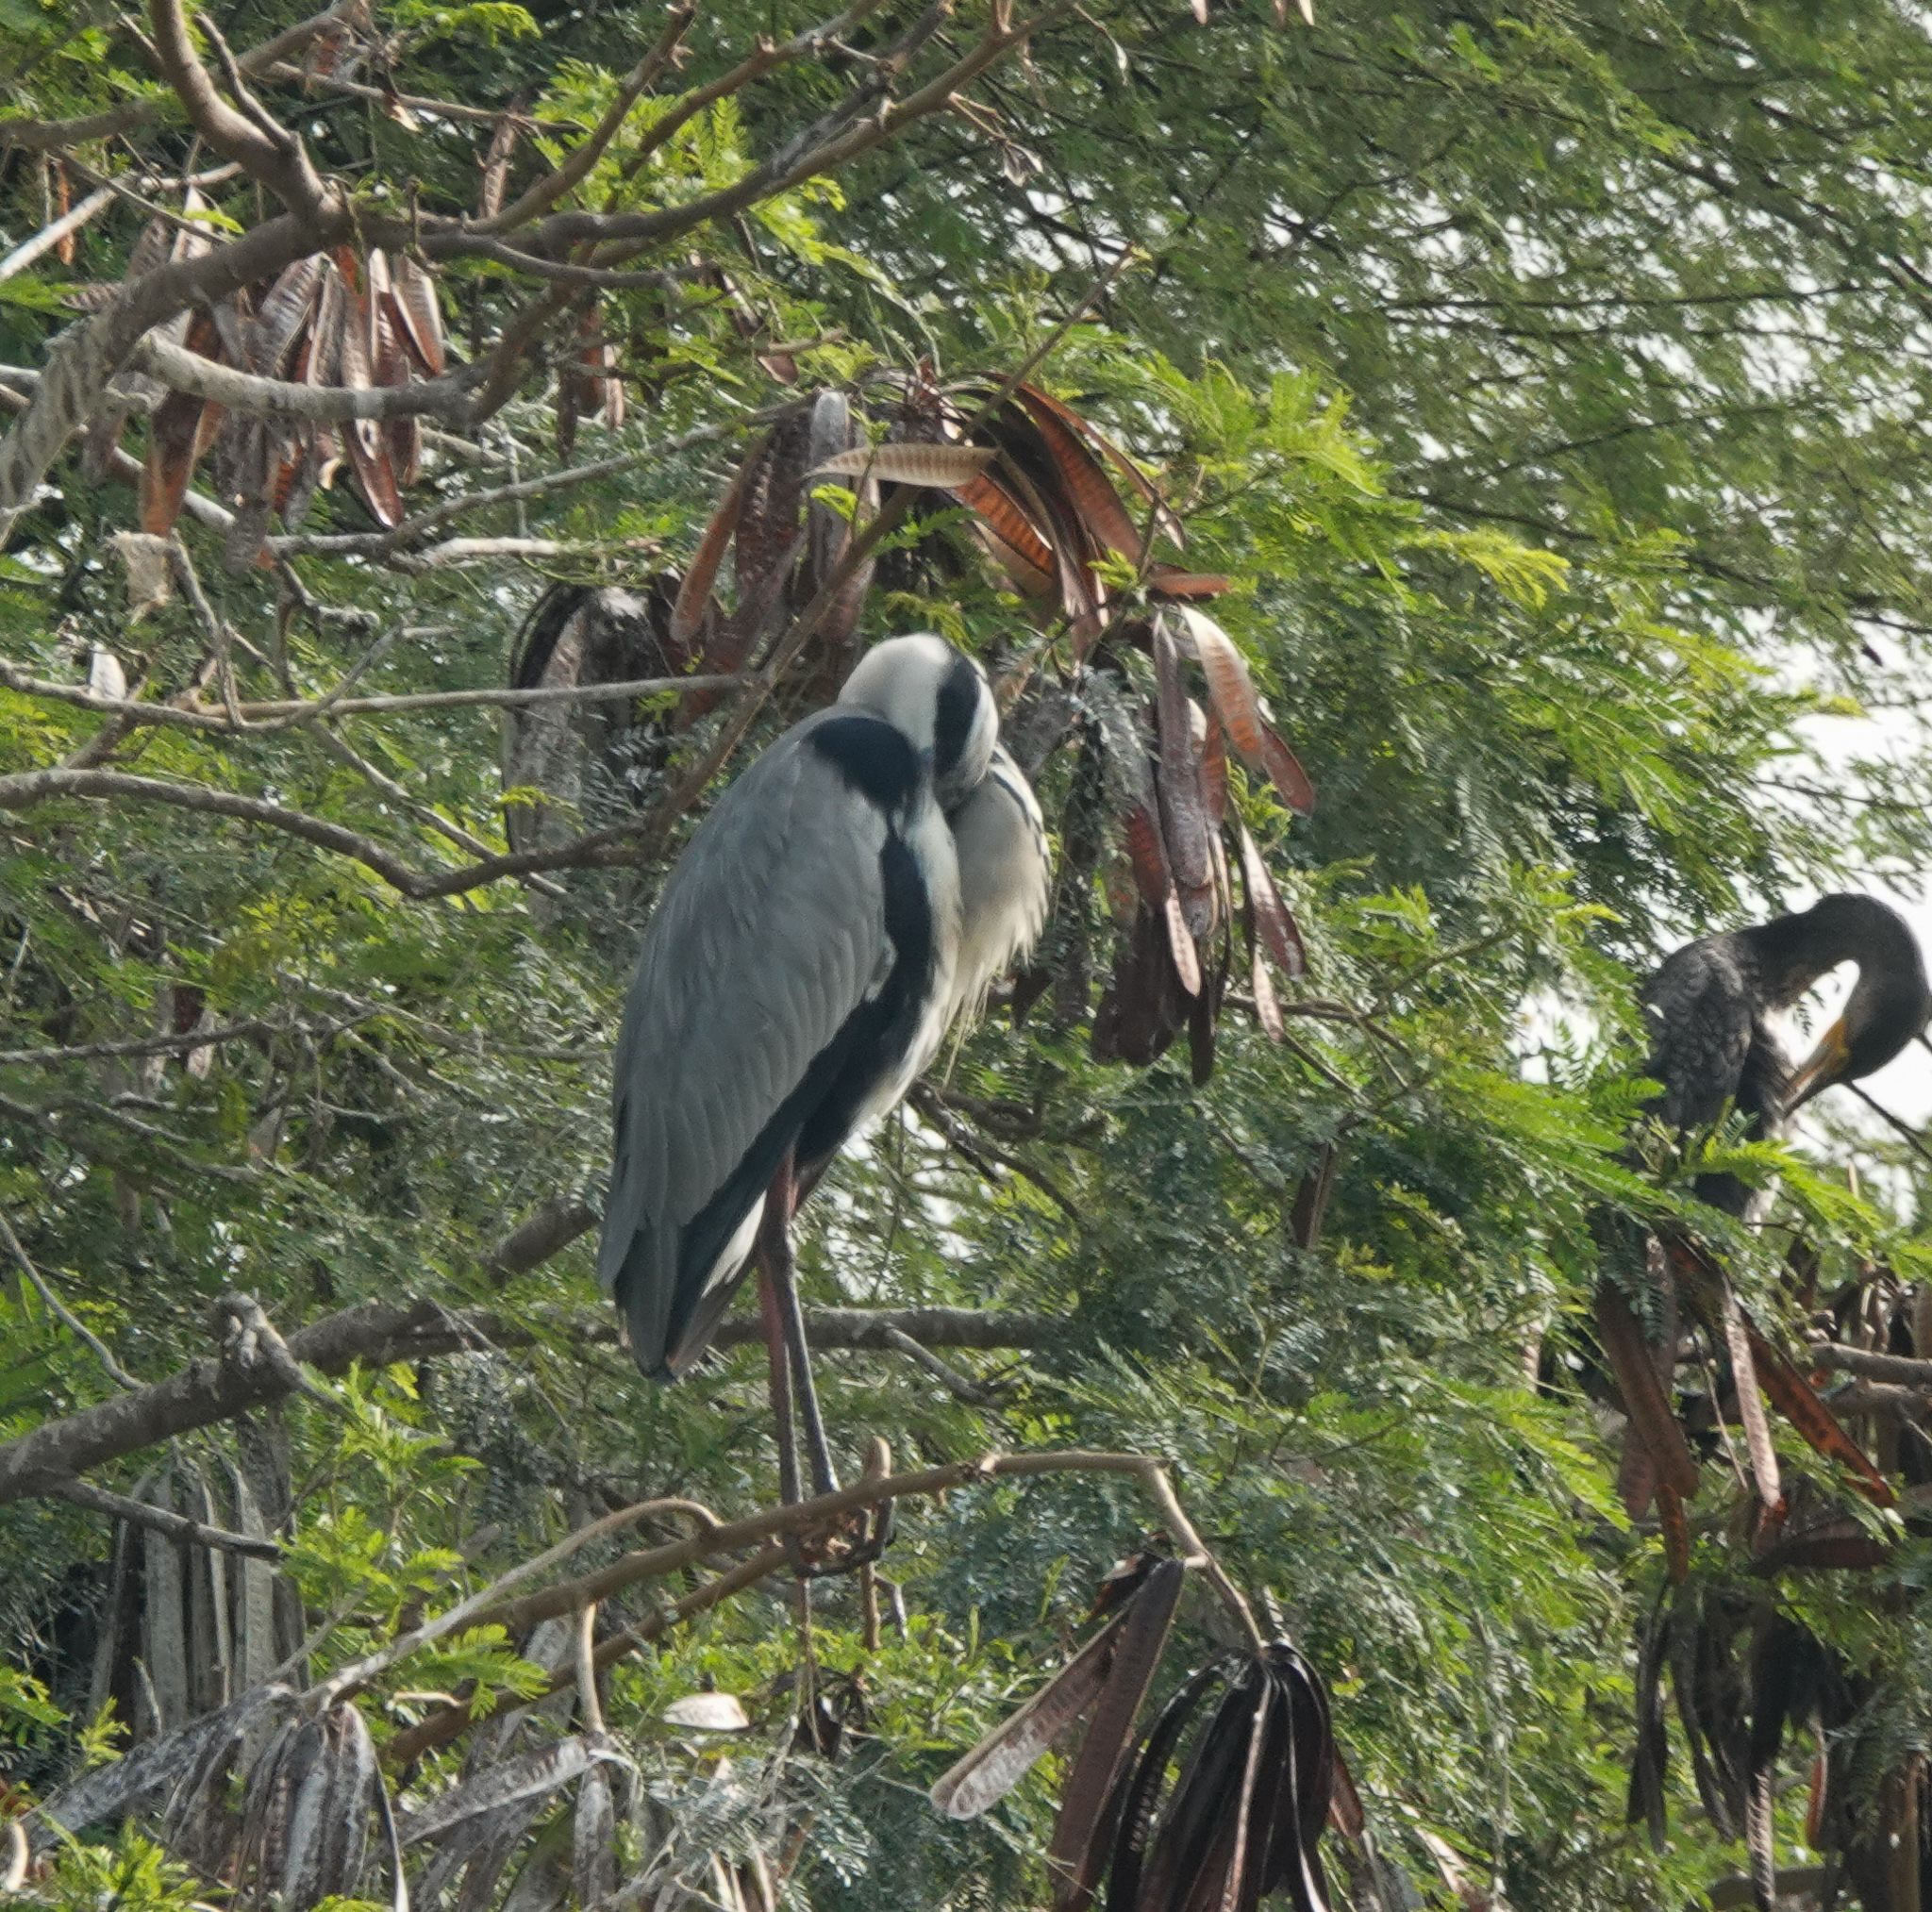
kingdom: Animalia
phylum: Chordata
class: Aves
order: Pelecaniformes
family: Ardeidae
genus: Ardea
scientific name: Ardea cinerea
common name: Grey heron
